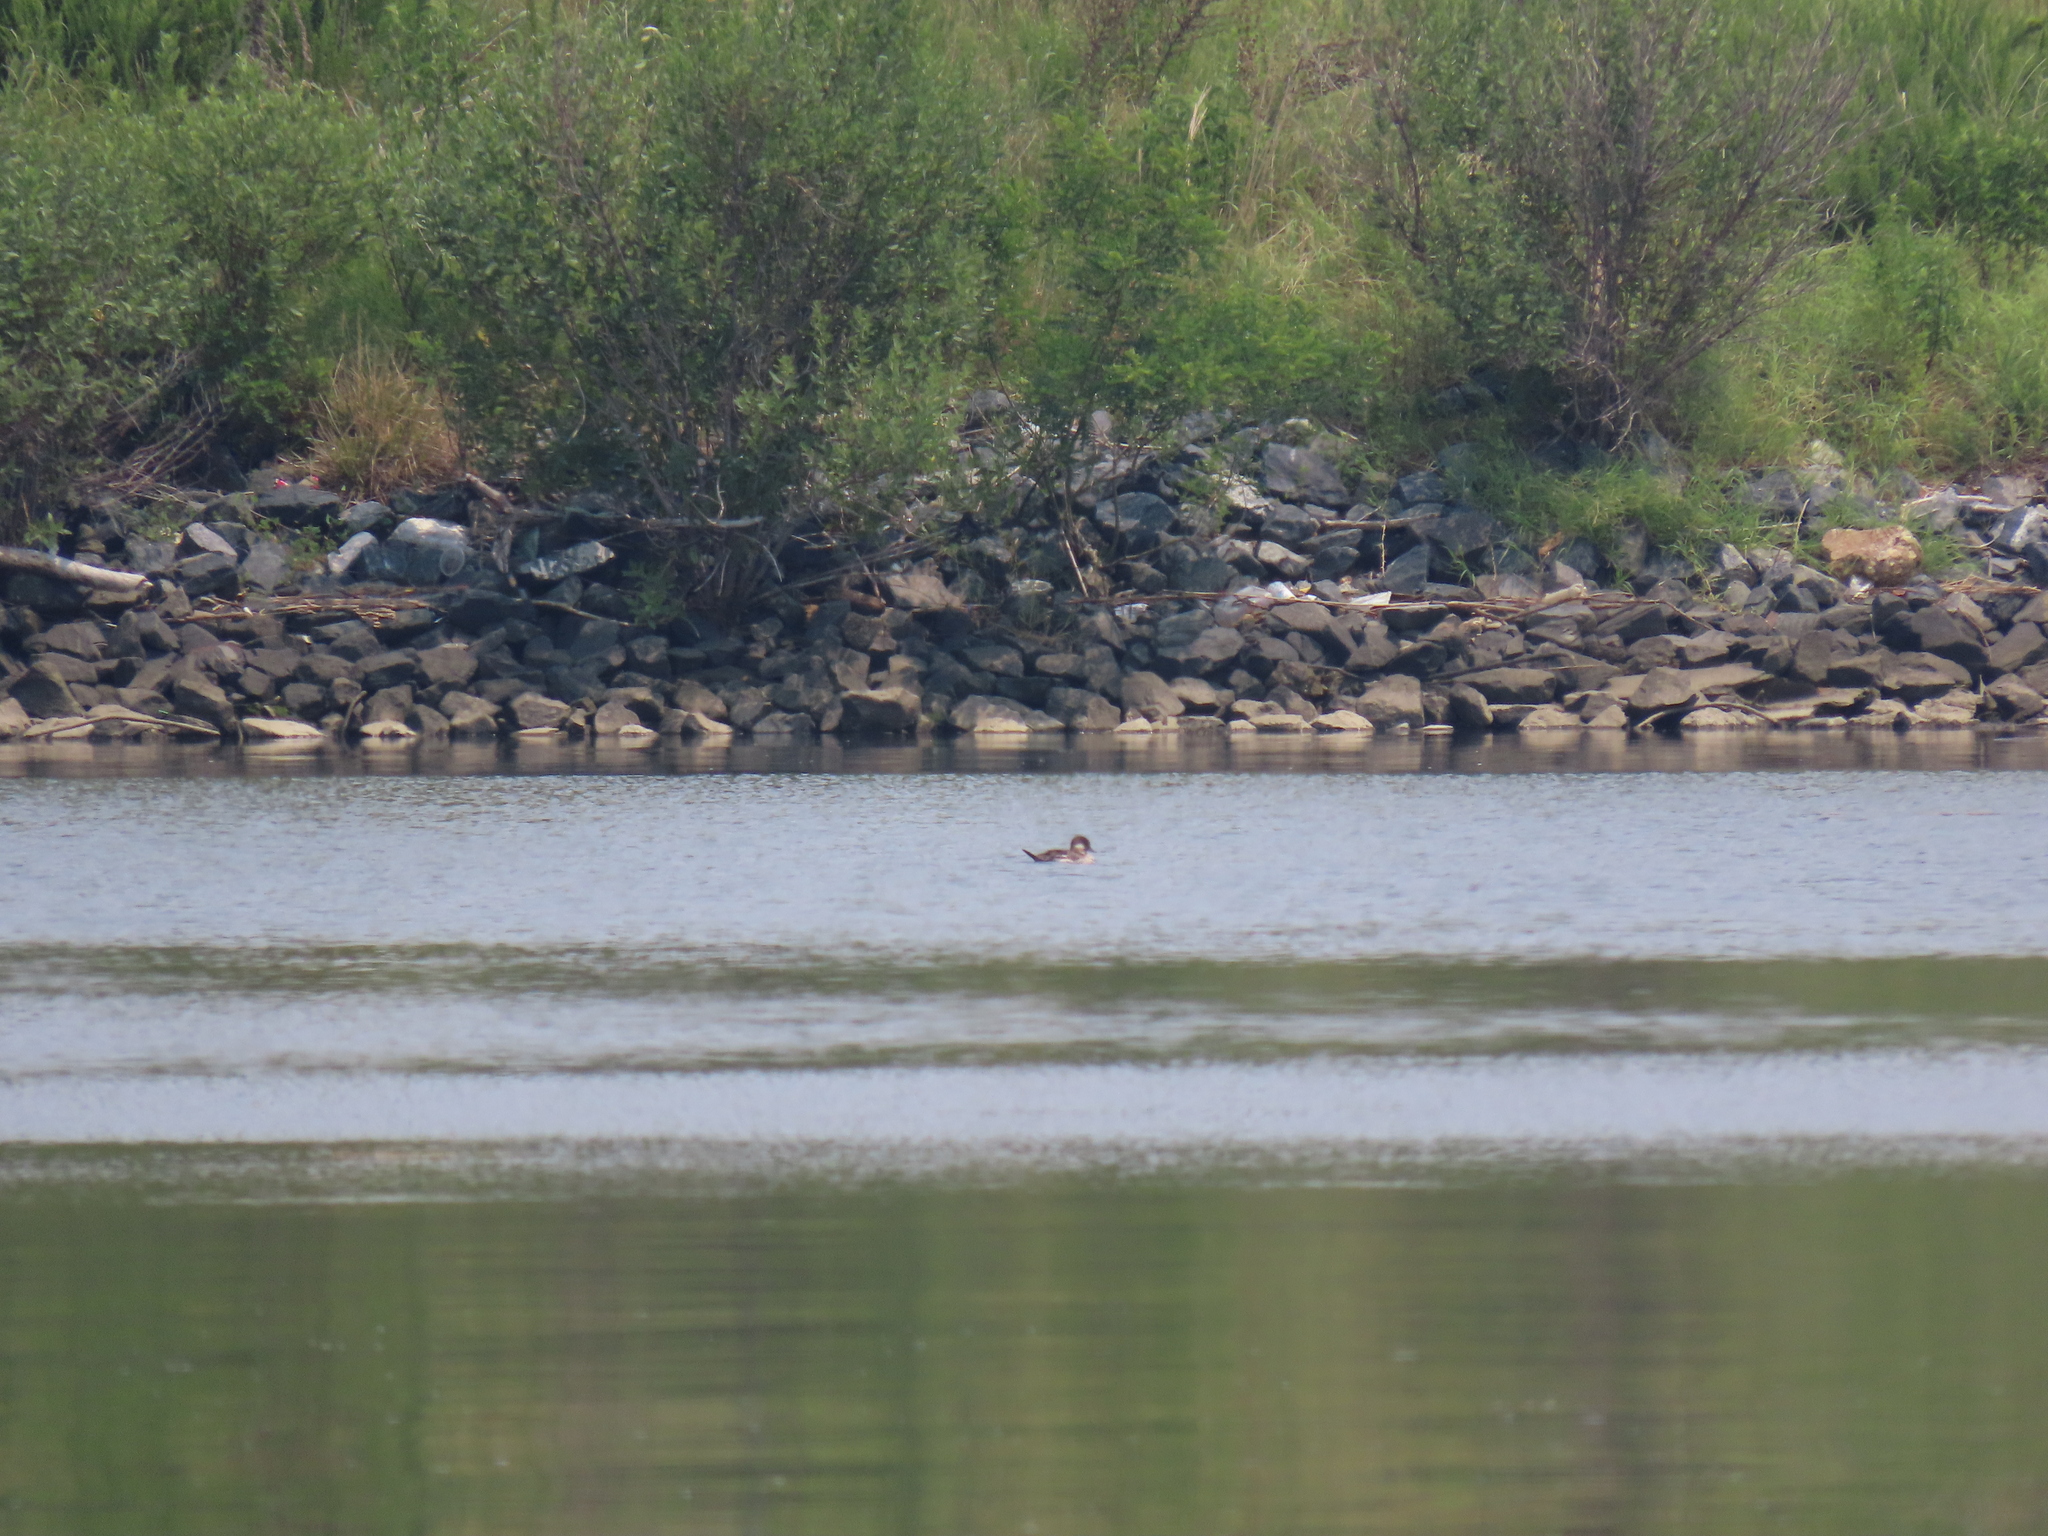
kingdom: Animalia
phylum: Chordata
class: Aves
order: Anseriformes
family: Anatidae
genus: Bucephala
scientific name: Bucephala albeola
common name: Bufflehead
